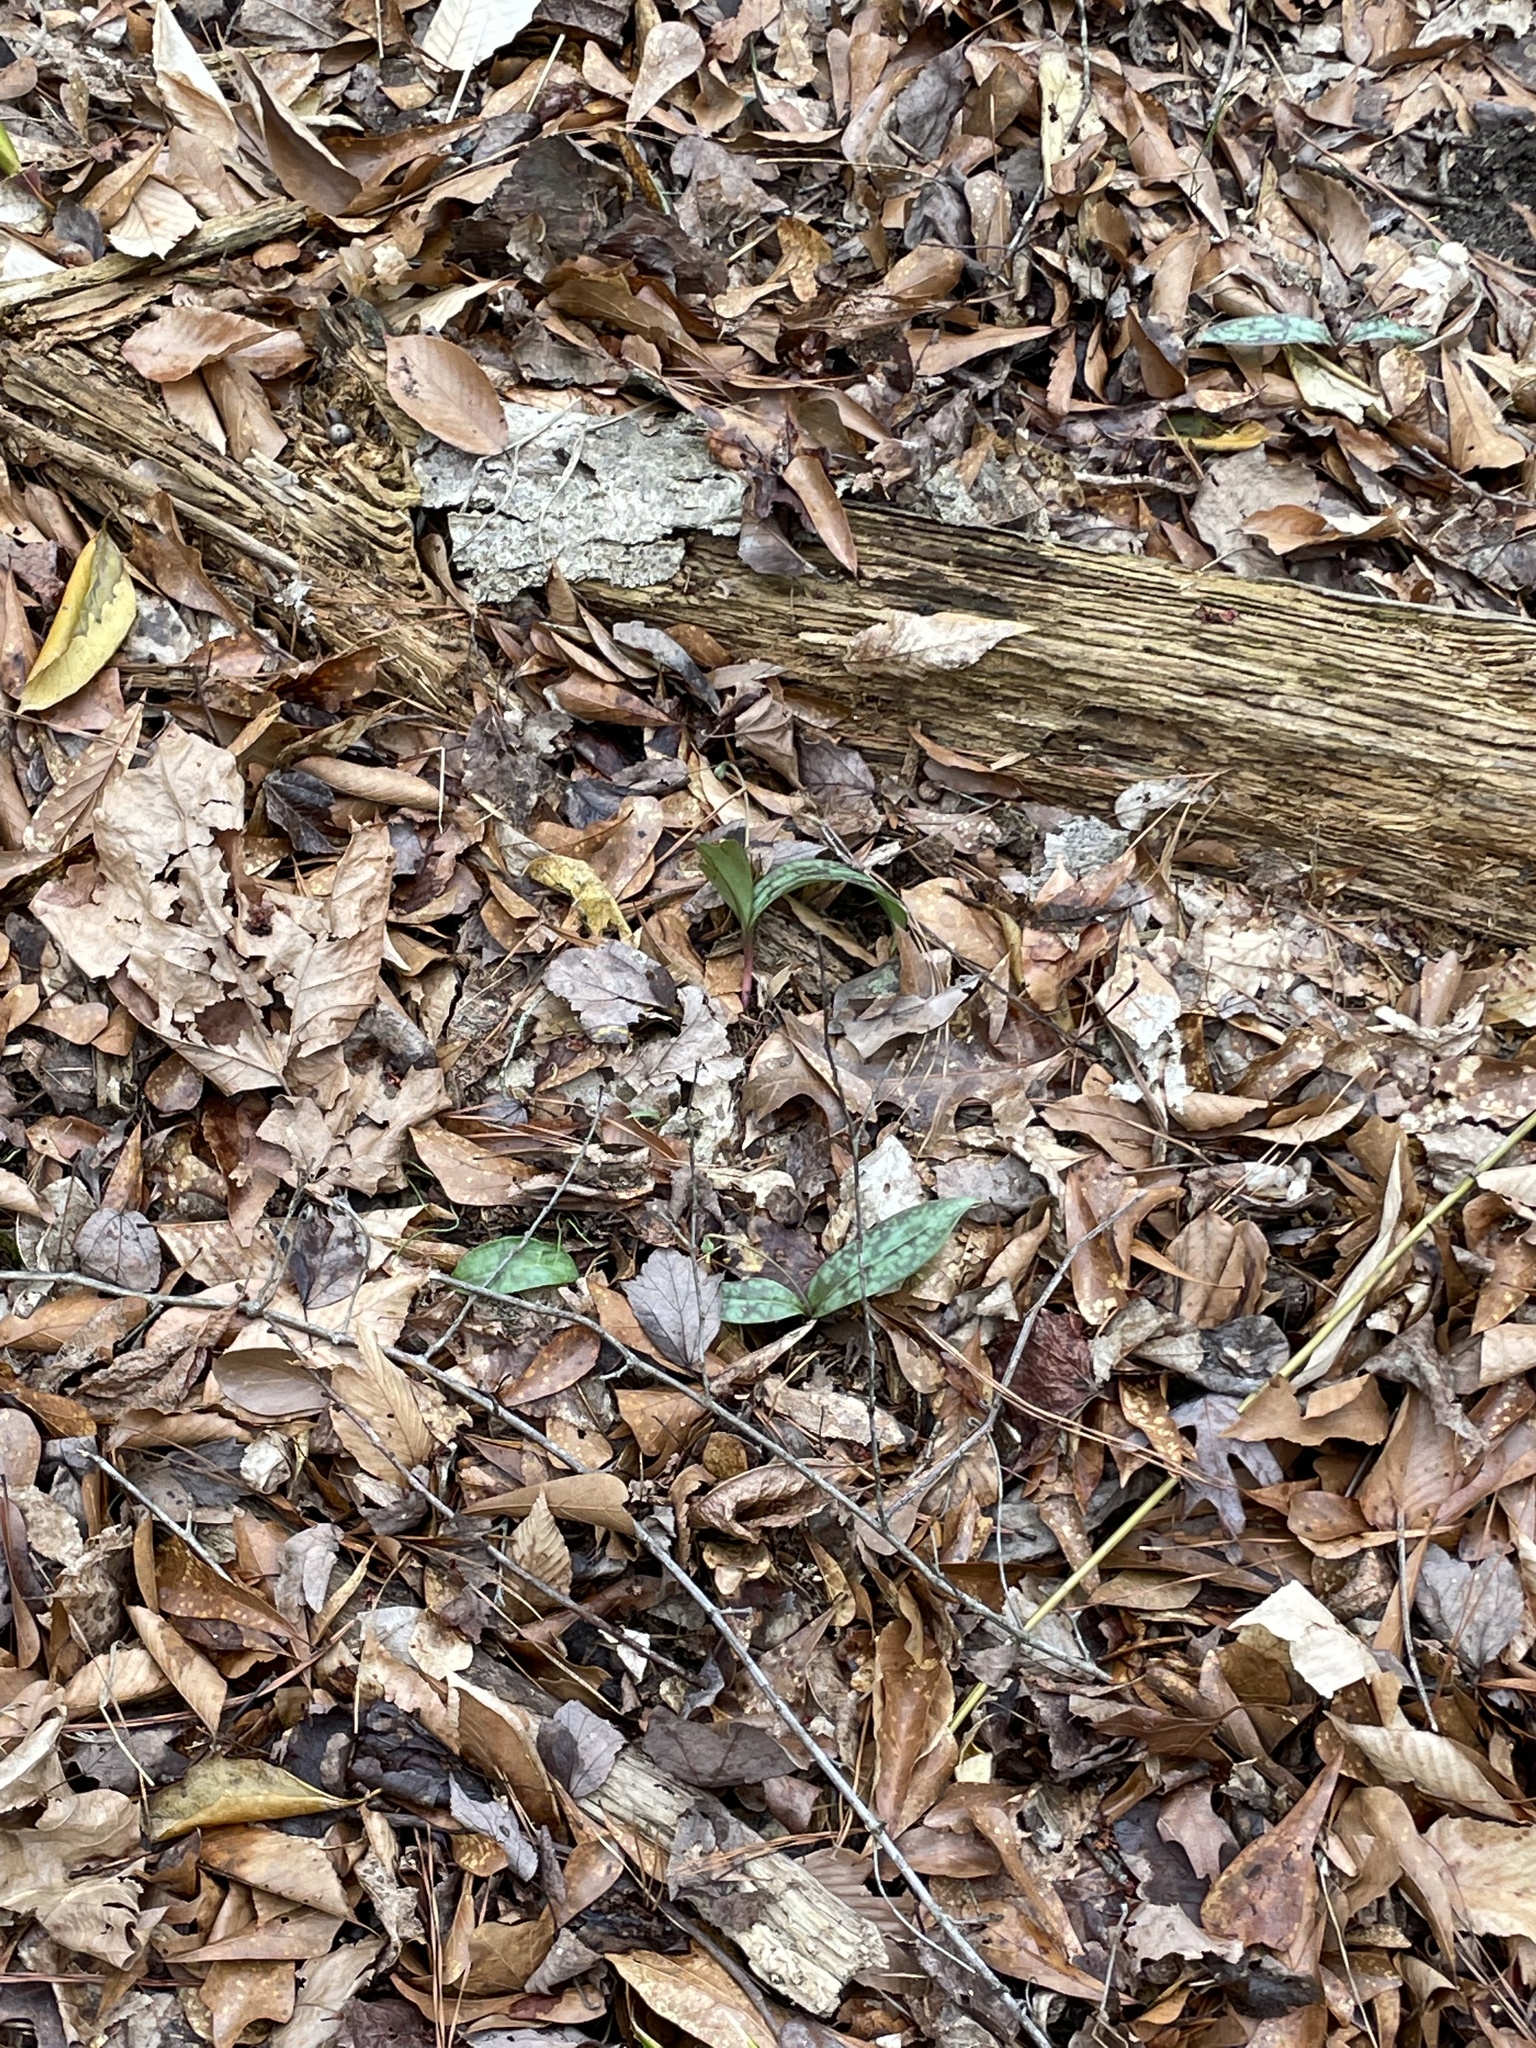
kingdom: Plantae
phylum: Tracheophyta
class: Liliopsida
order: Liliales
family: Liliaceae
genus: Erythronium
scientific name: Erythronium umbilicatum
